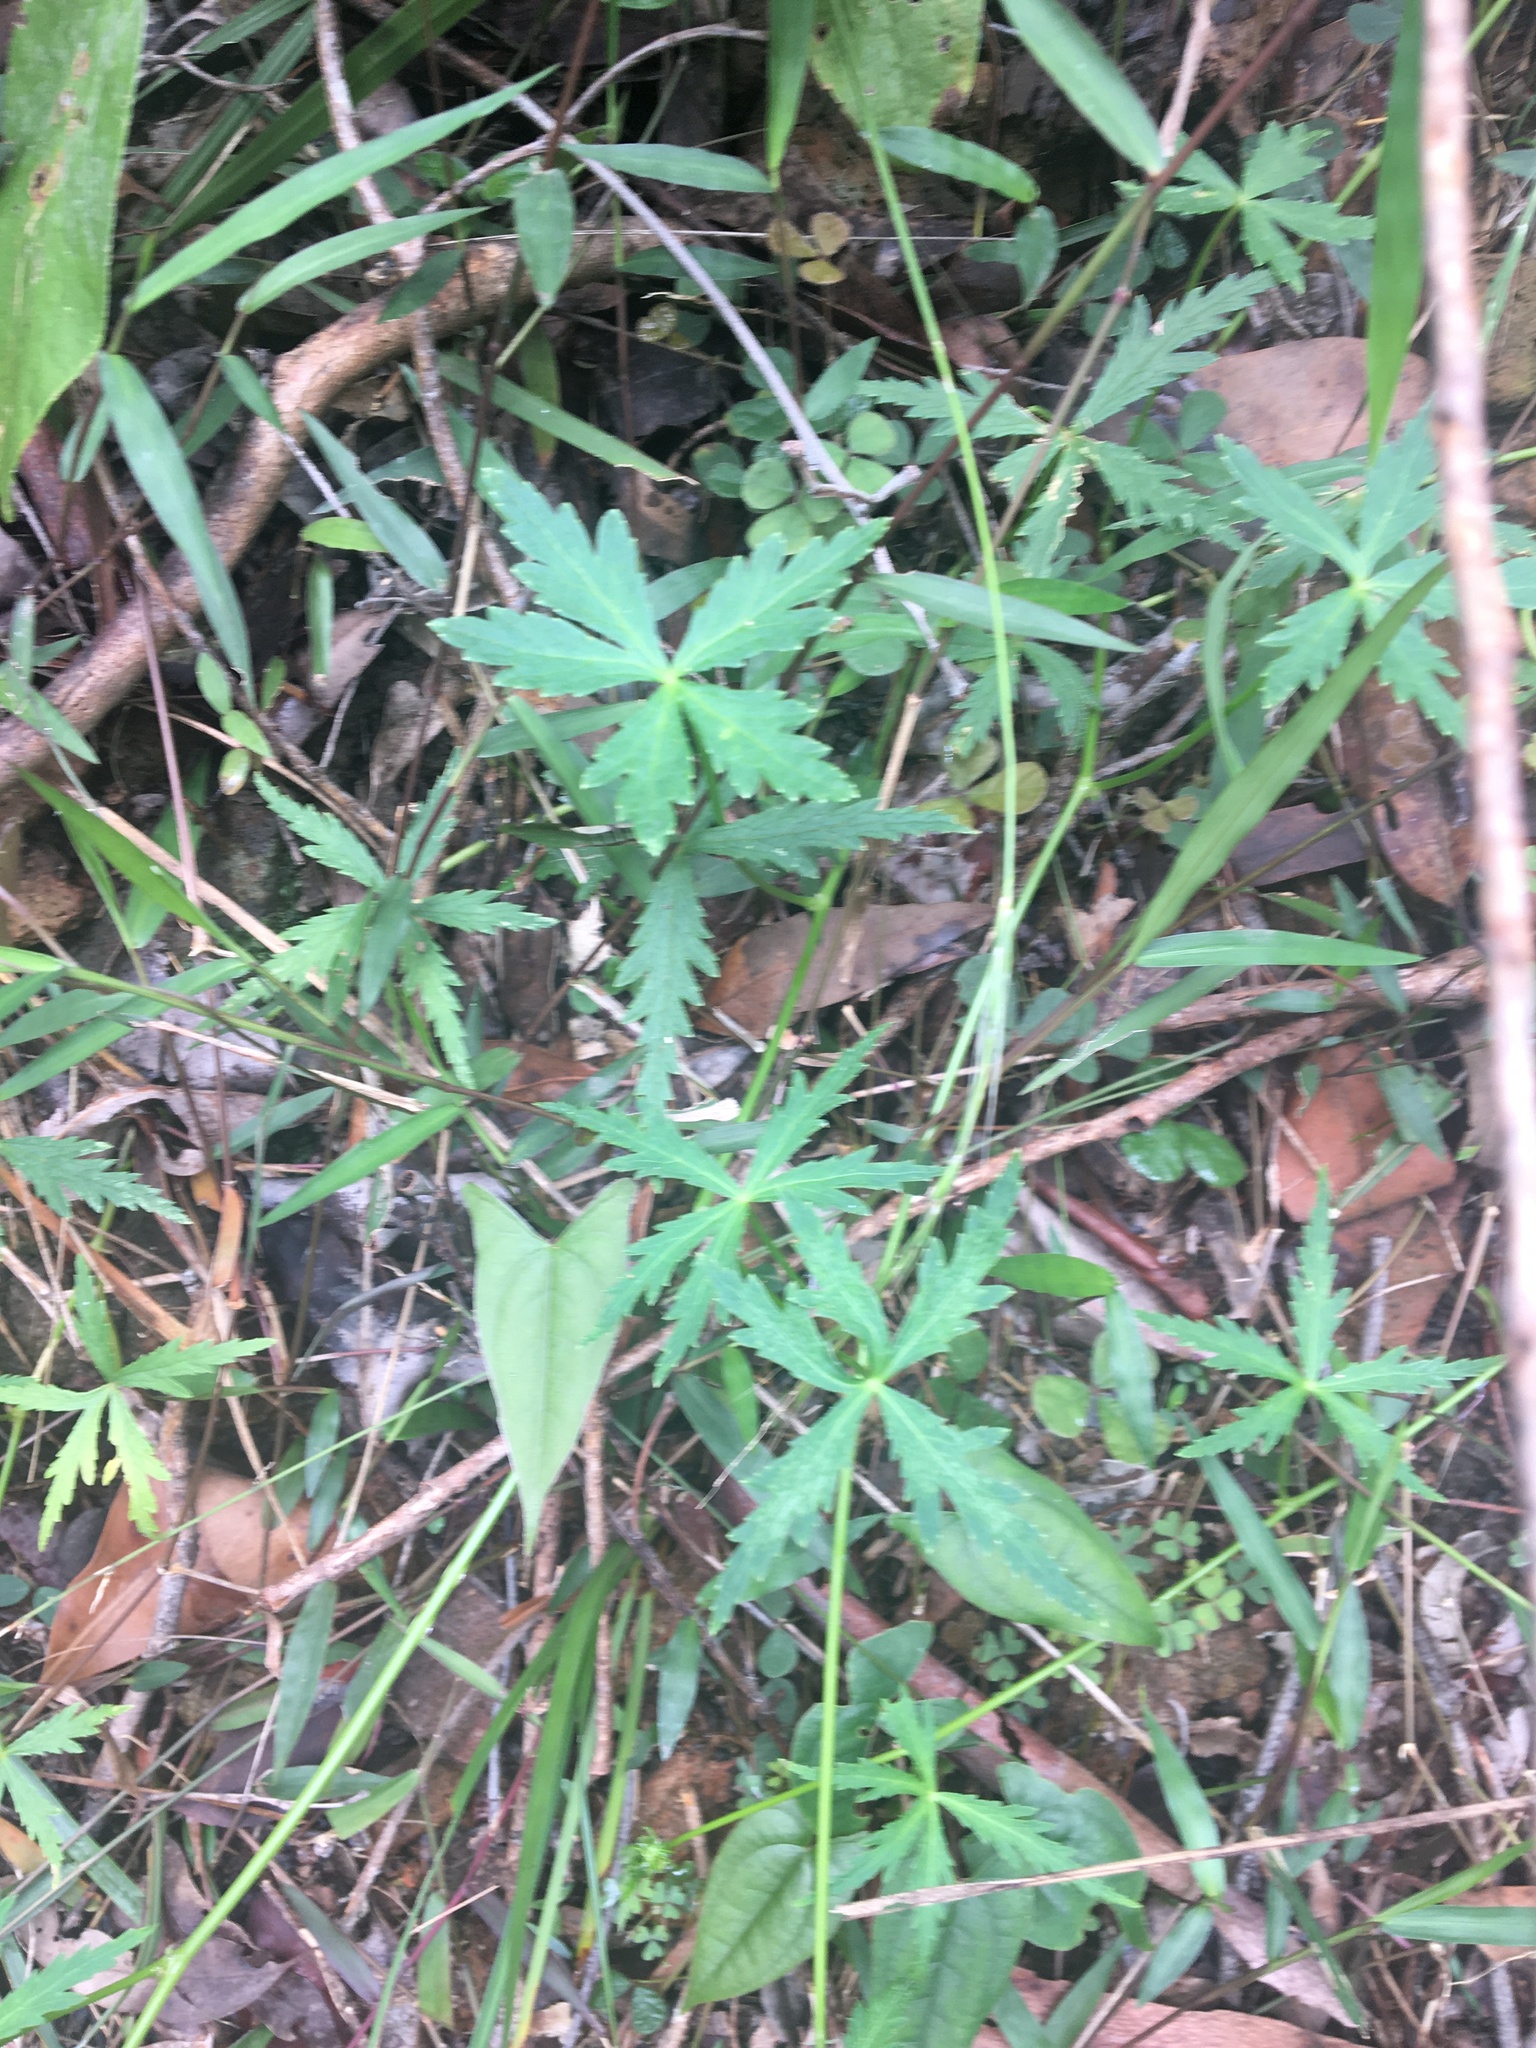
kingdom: Plantae
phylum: Tracheophyta
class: Magnoliopsida
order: Apiales
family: Araliaceae
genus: Hydrocotyle
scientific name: Hydrocotyle geraniifolia
